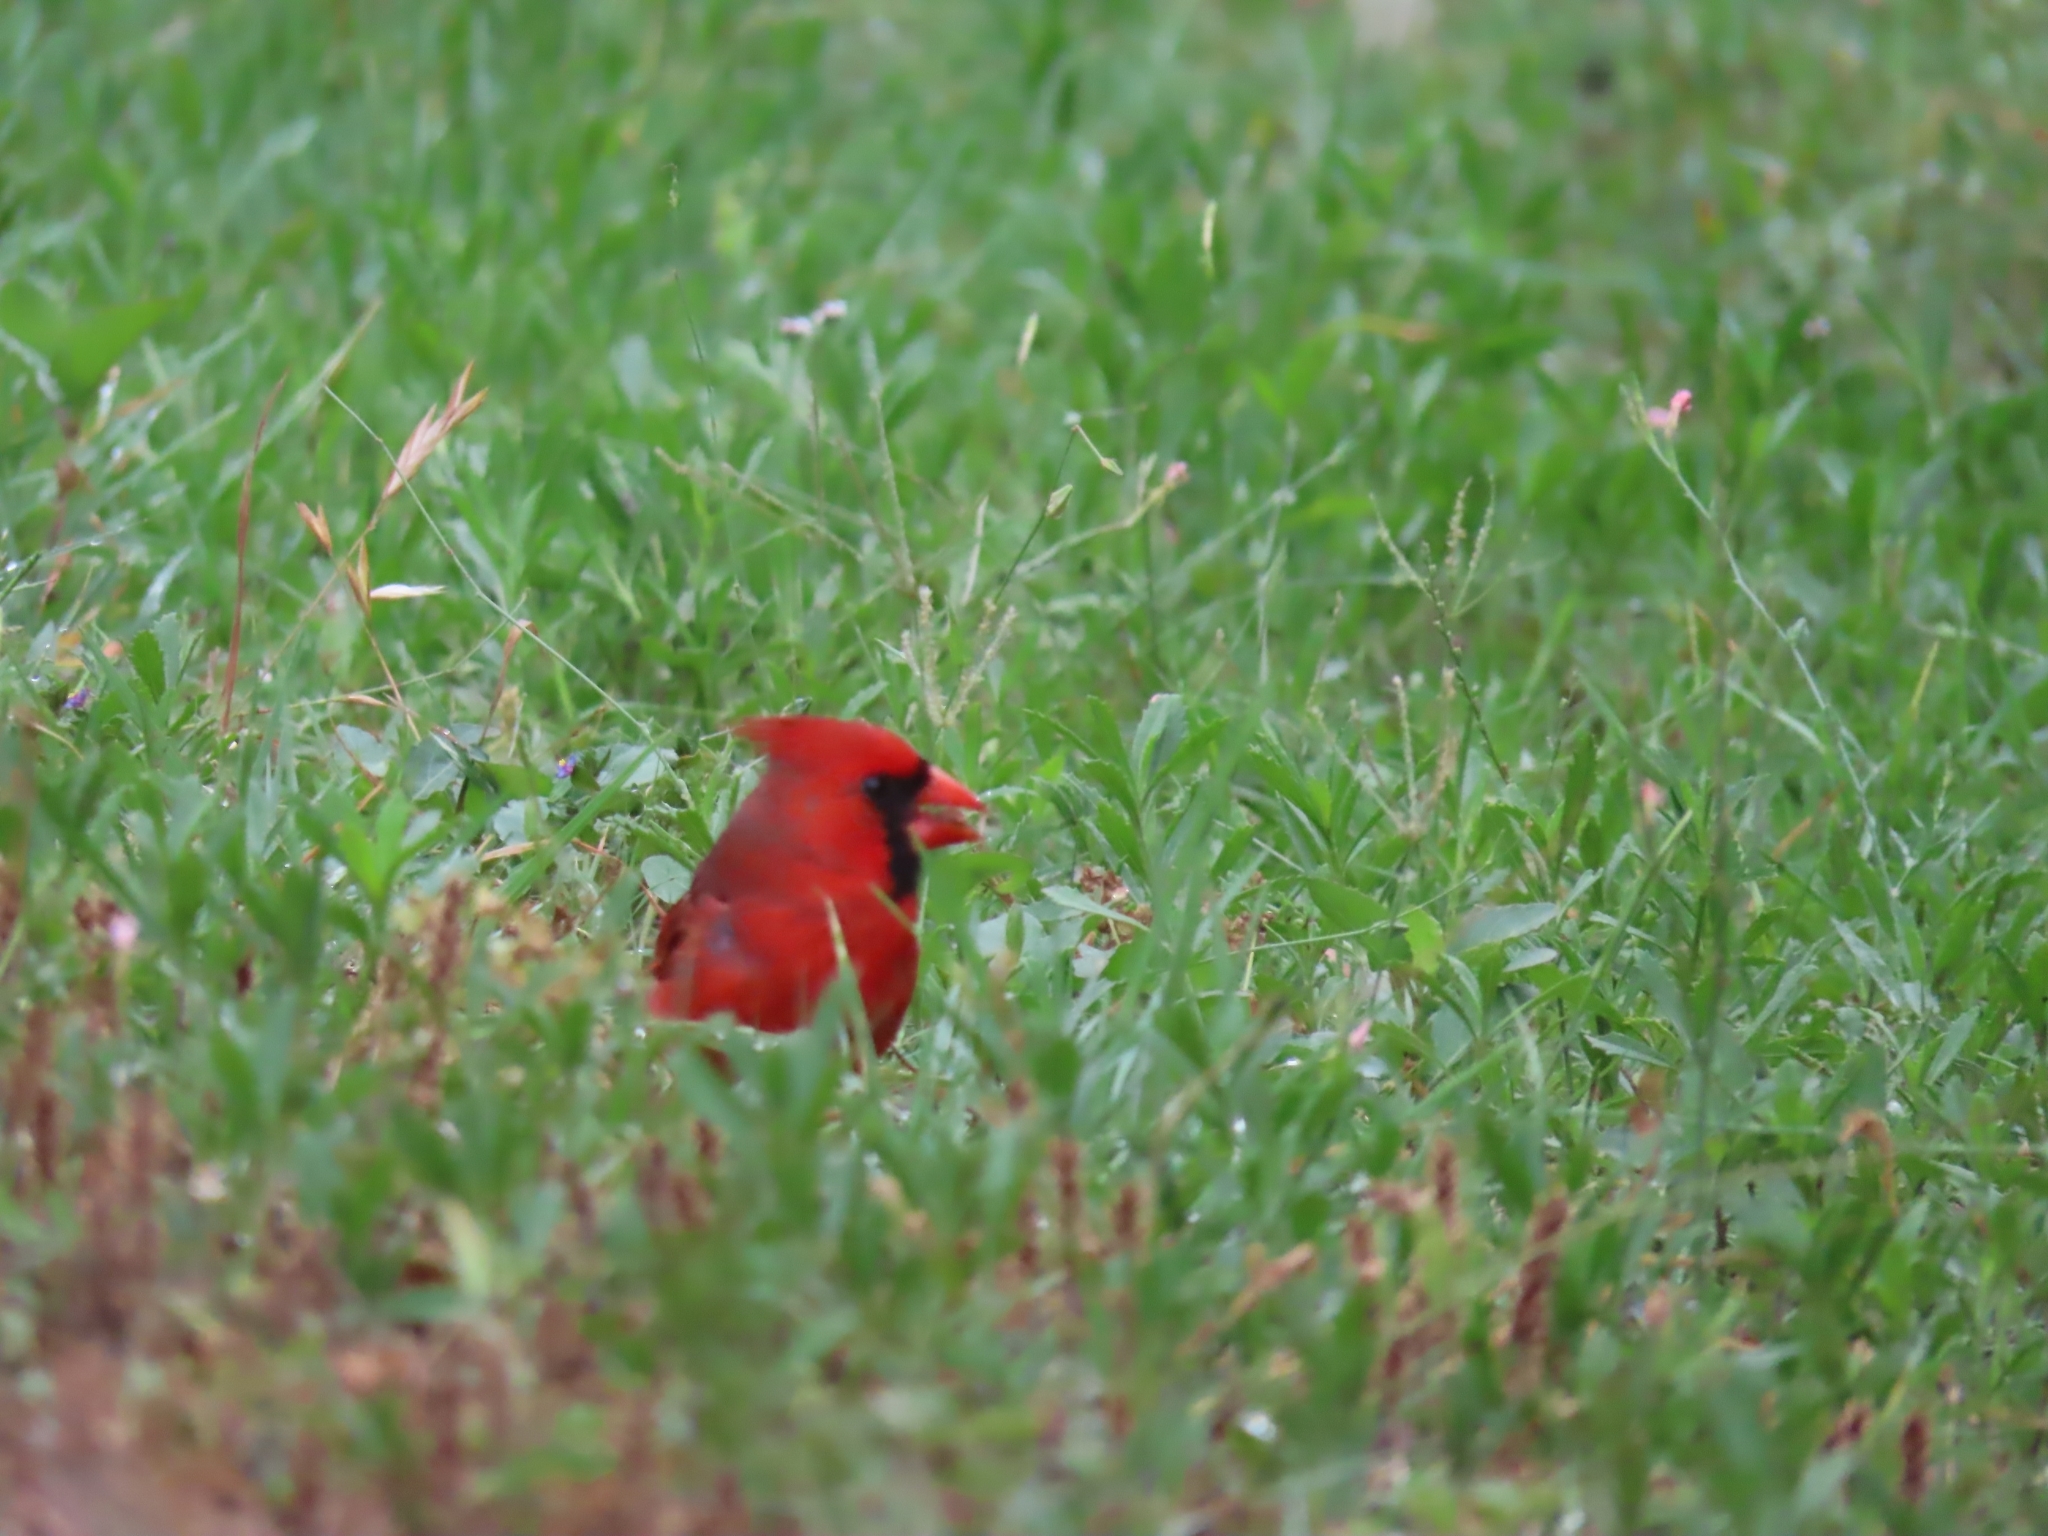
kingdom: Animalia
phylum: Chordata
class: Aves
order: Passeriformes
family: Cardinalidae
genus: Cardinalis
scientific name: Cardinalis cardinalis
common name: Northern cardinal
